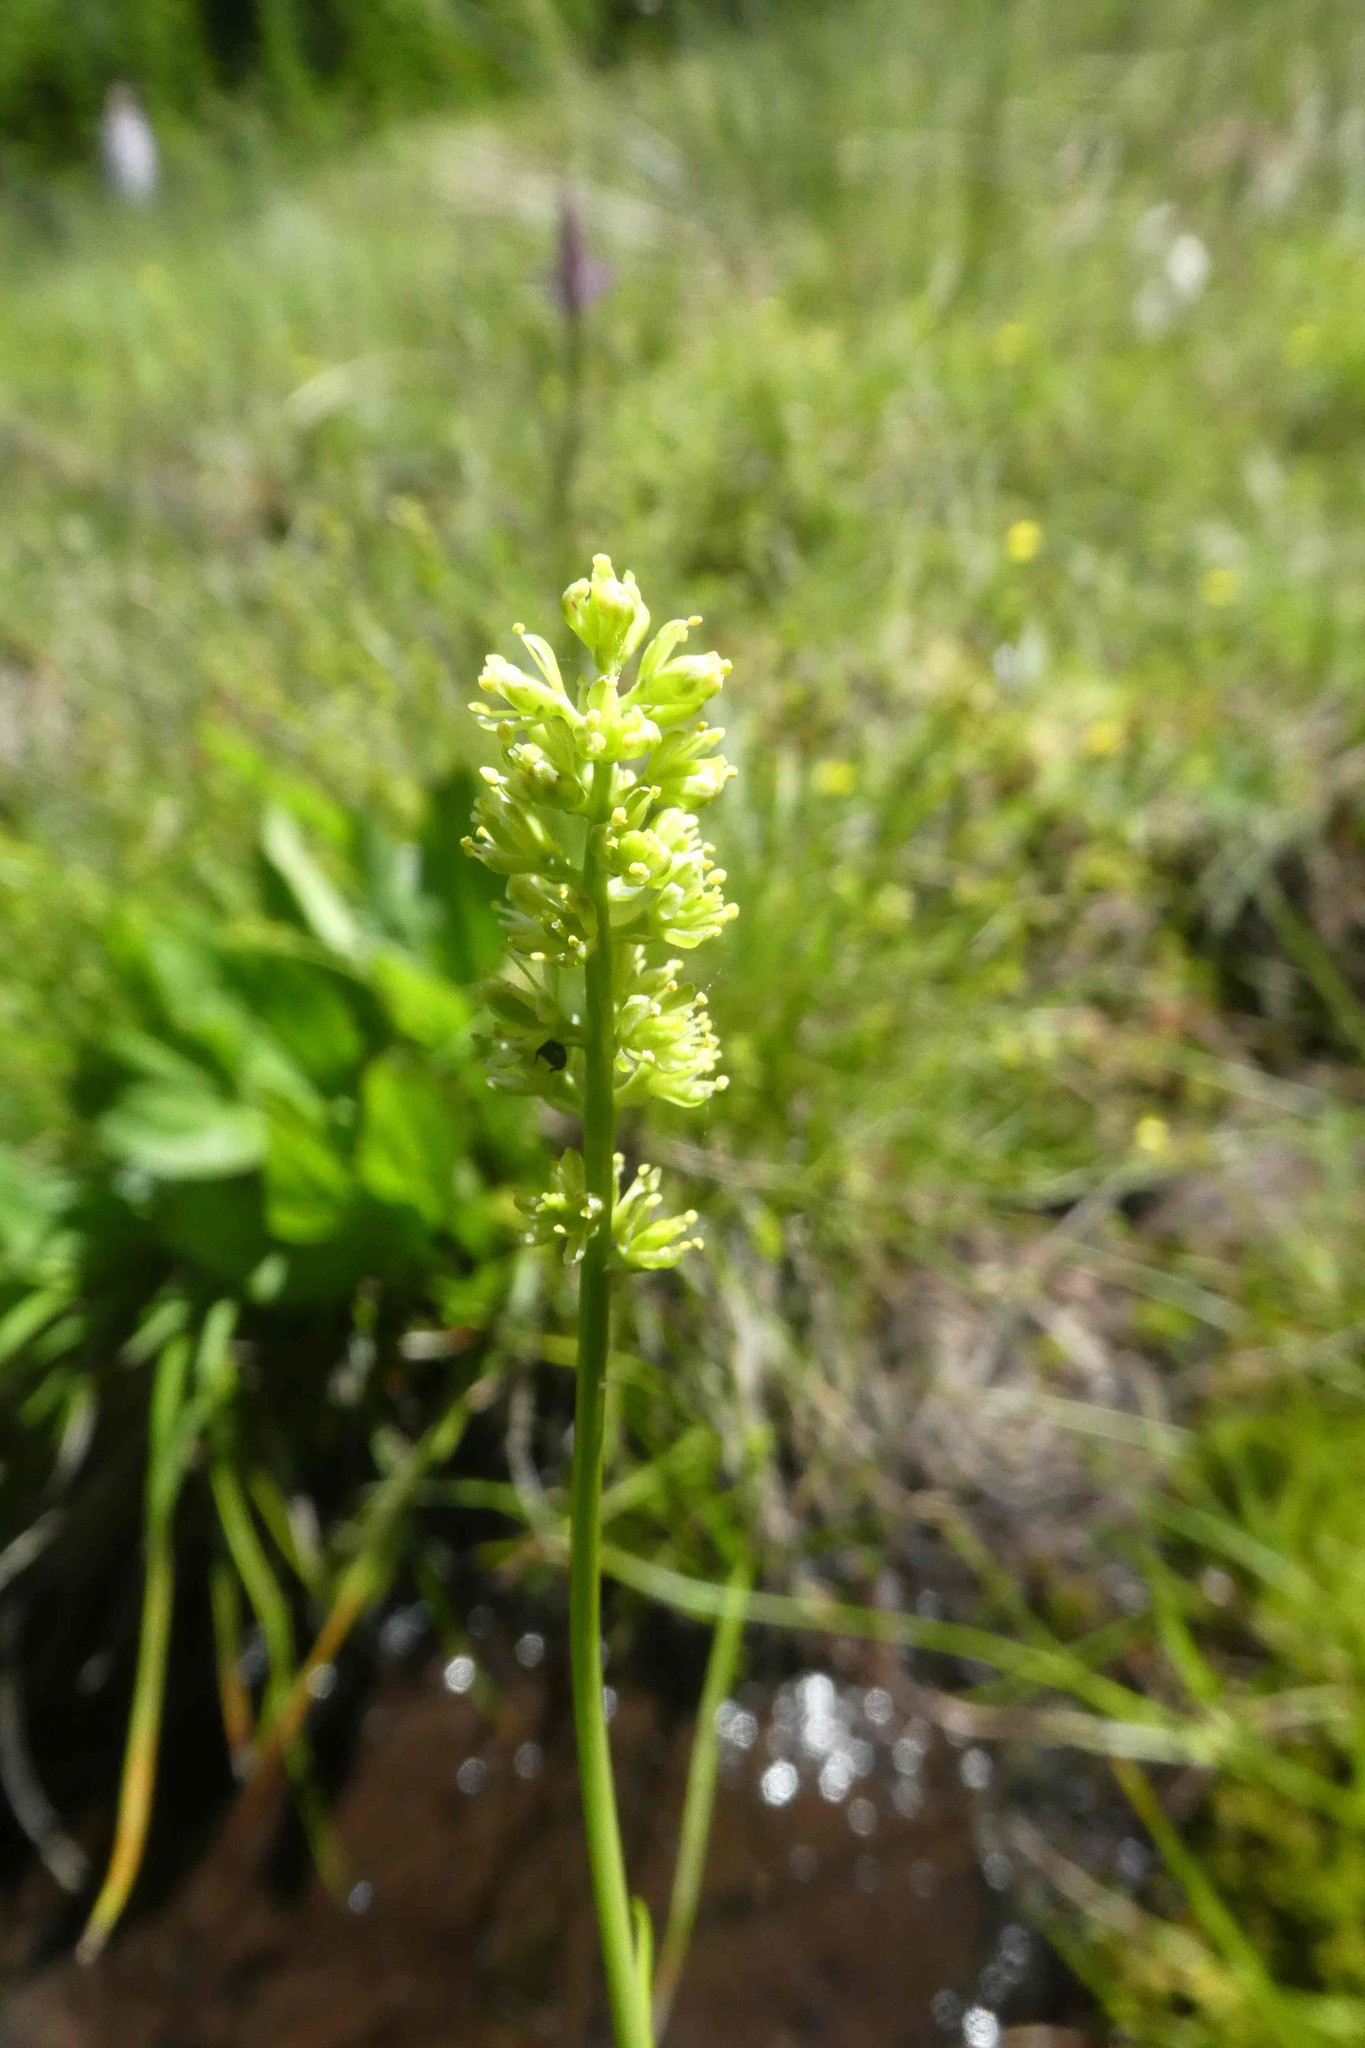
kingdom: Plantae
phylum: Tracheophyta
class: Liliopsida
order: Alismatales
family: Tofieldiaceae
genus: Tofieldia
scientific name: Tofieldia calyculata
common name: German-asphodel
